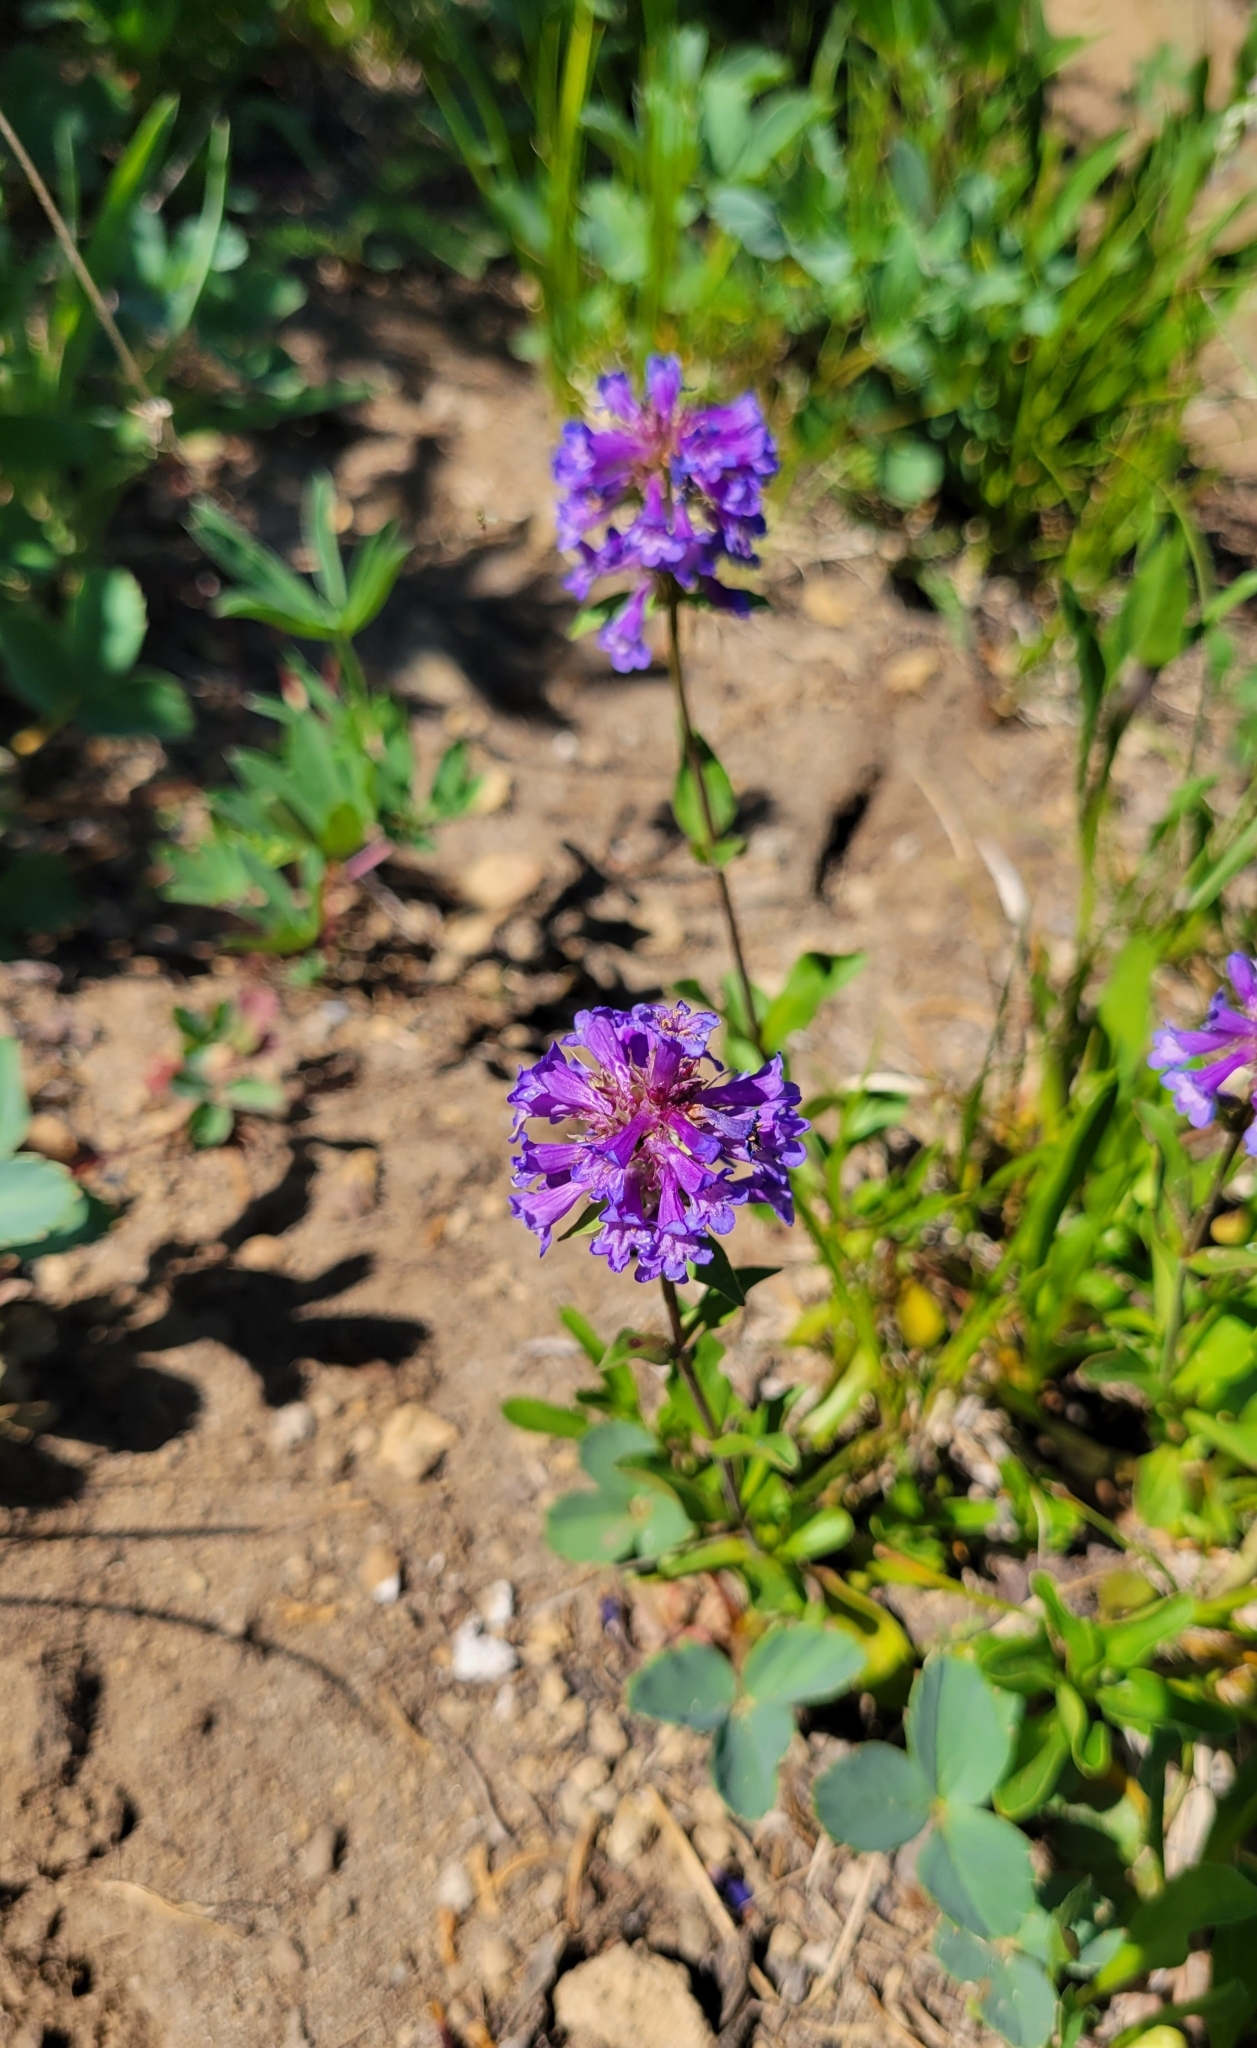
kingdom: Plantae
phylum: Tracheophyta
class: Magnoliopsida
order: Lamiales
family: Plantaginaceae
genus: Penstemon
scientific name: Penstemon procerus
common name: Small-flower penstemon
